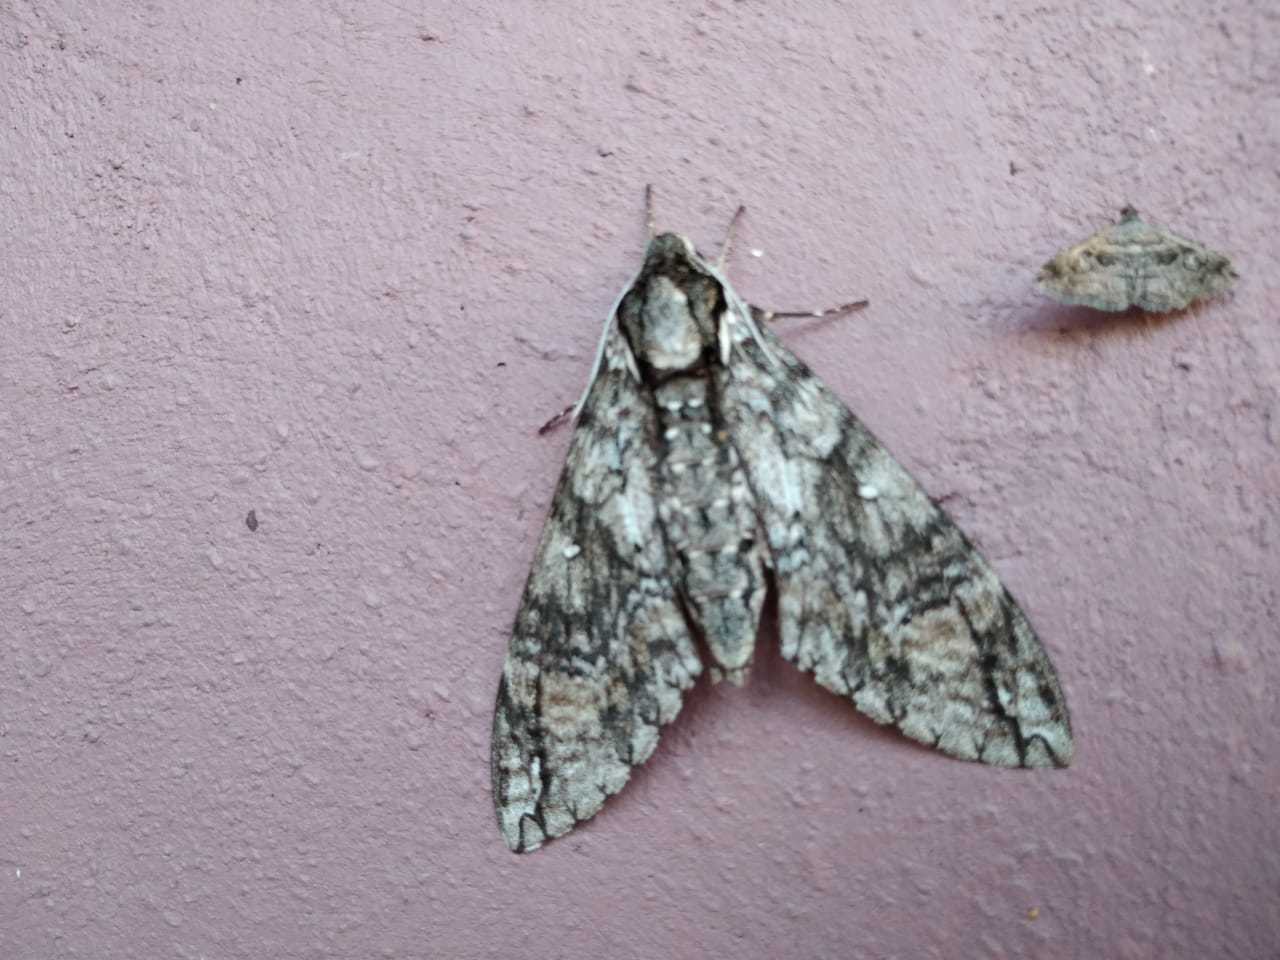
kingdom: Animalia
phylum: Arthropoda
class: Insecta
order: Lepidoptera
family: Sphingidae
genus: Manduca
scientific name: Manduca aztecus
